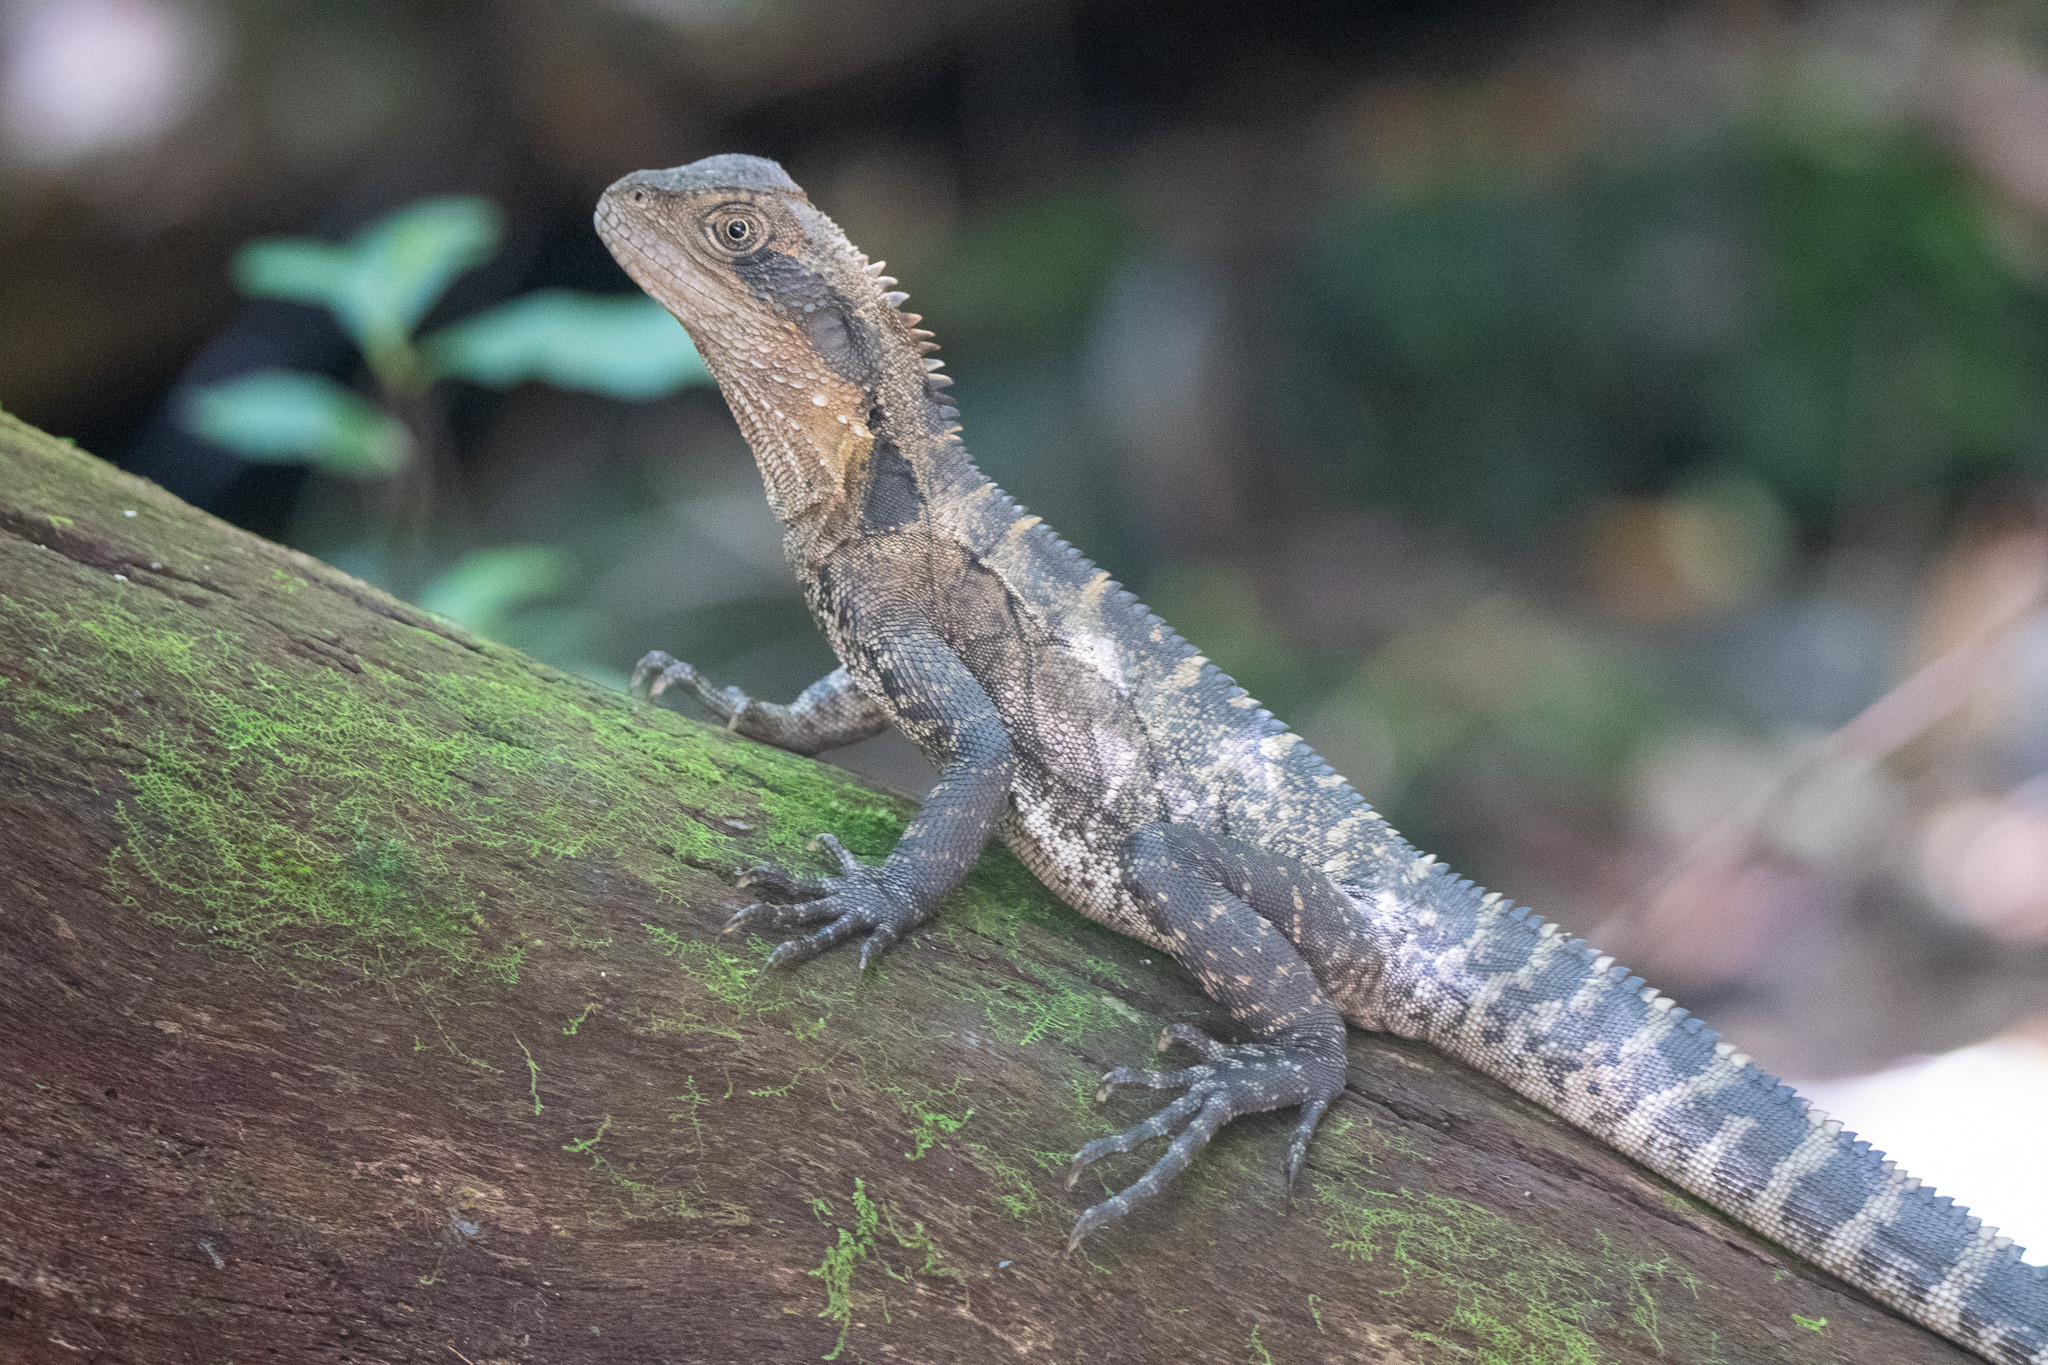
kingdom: Animalia
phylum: Chordata
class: Squamata
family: Agamidae
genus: Intellagama
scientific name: Intellagama lesueurii
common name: Eastern water dragon
